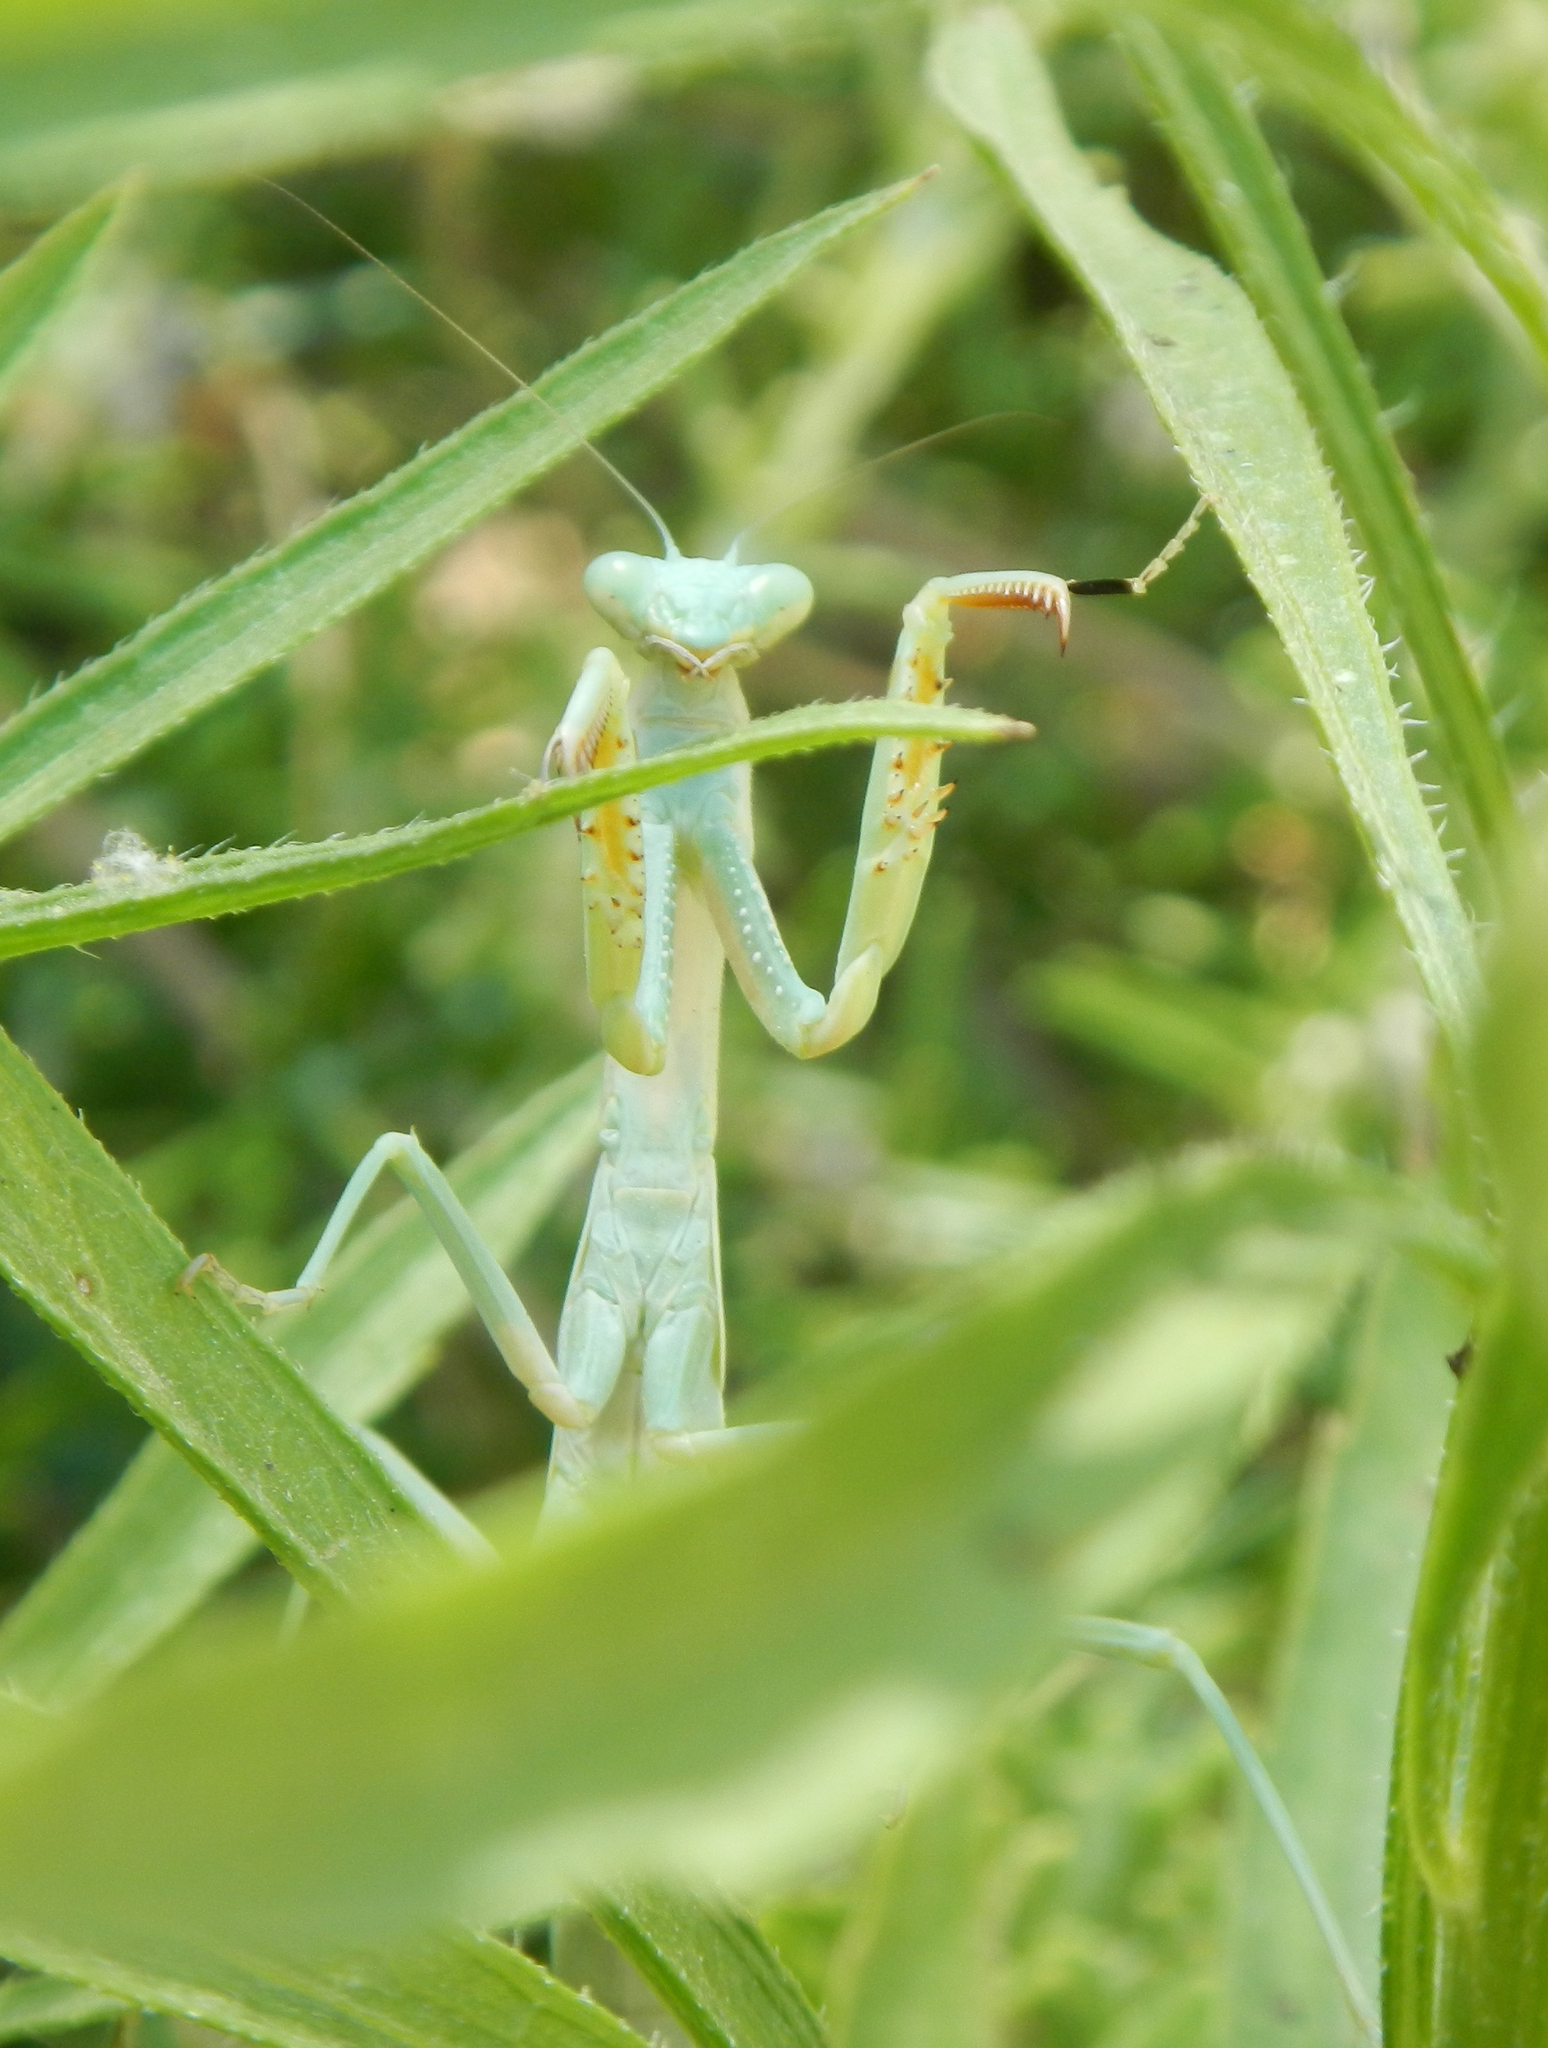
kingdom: Animalia
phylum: Arthropoda
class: Insecta
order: Mantodea
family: Eremiaphilidae
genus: Iris
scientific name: Iris oratoria
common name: Mediterranean mantis
